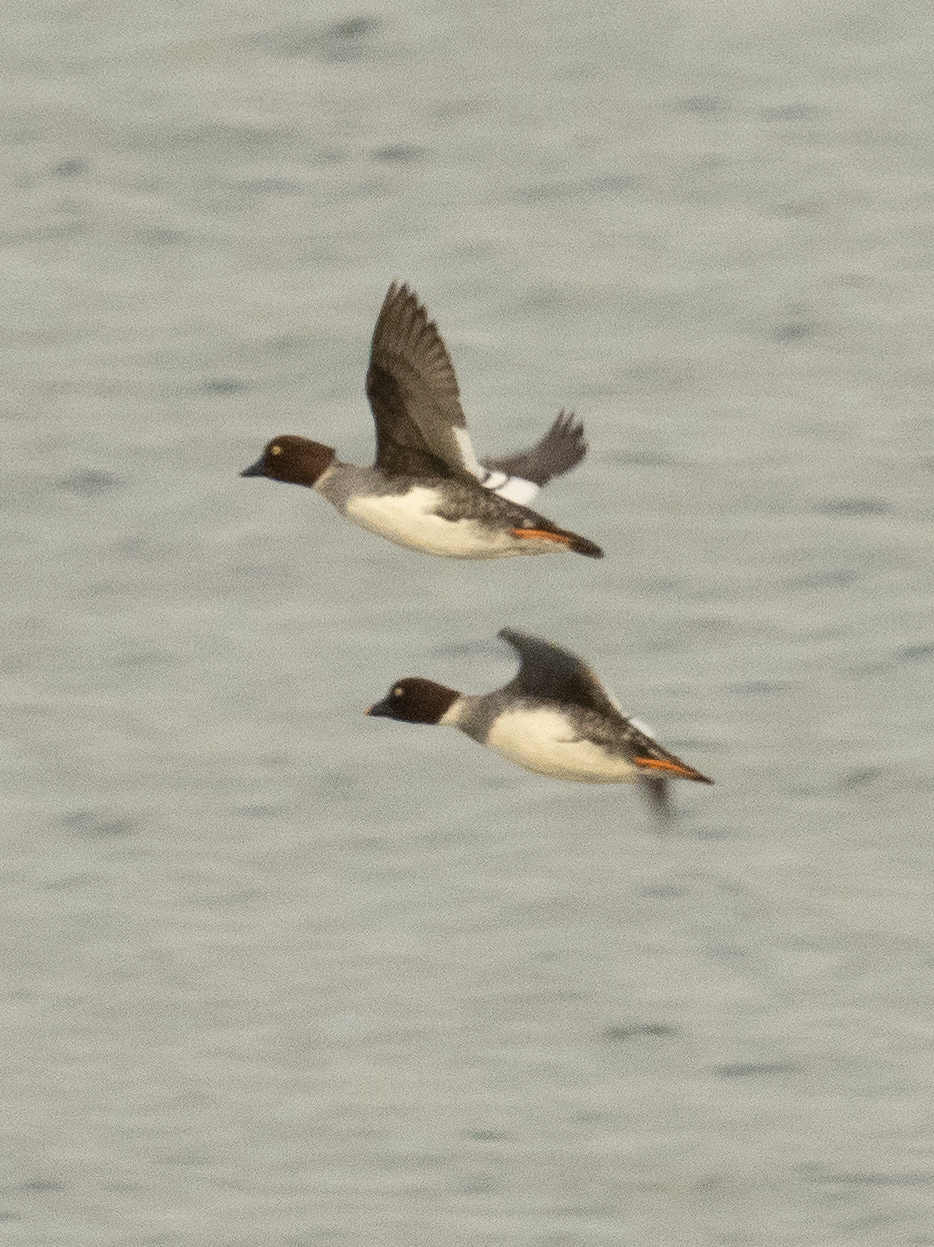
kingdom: Animalia
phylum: Chordata
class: Aves
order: Anseriformes
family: Anatidae
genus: Bucephala
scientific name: Bucephala clangula
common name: Common goldeneye
